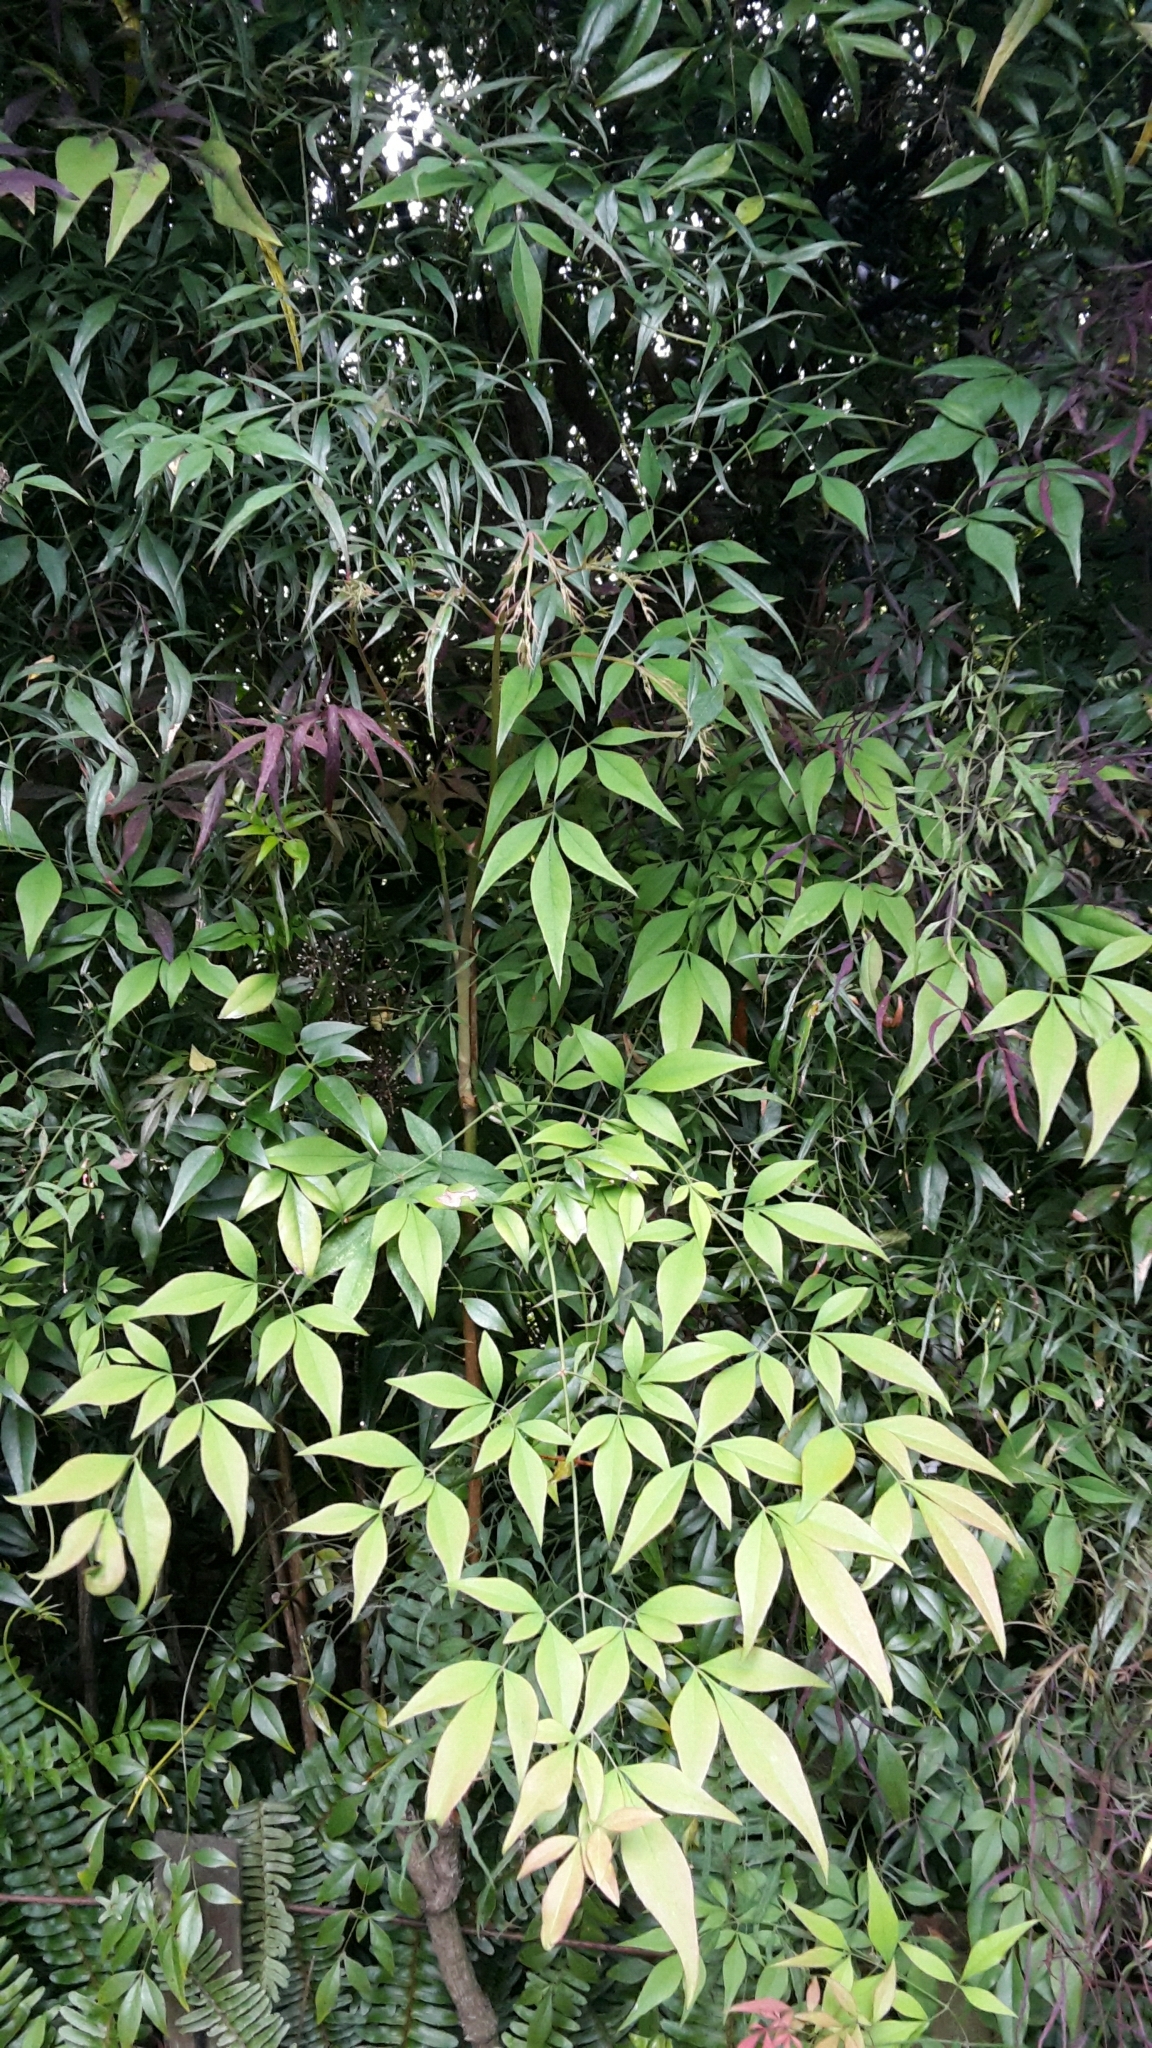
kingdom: Plantae
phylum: Tracheophyta
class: Magnoliopsida
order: Ranunculales
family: Berberidaceae
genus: Nandina
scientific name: Nandina domestica
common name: Sacred bamboo
